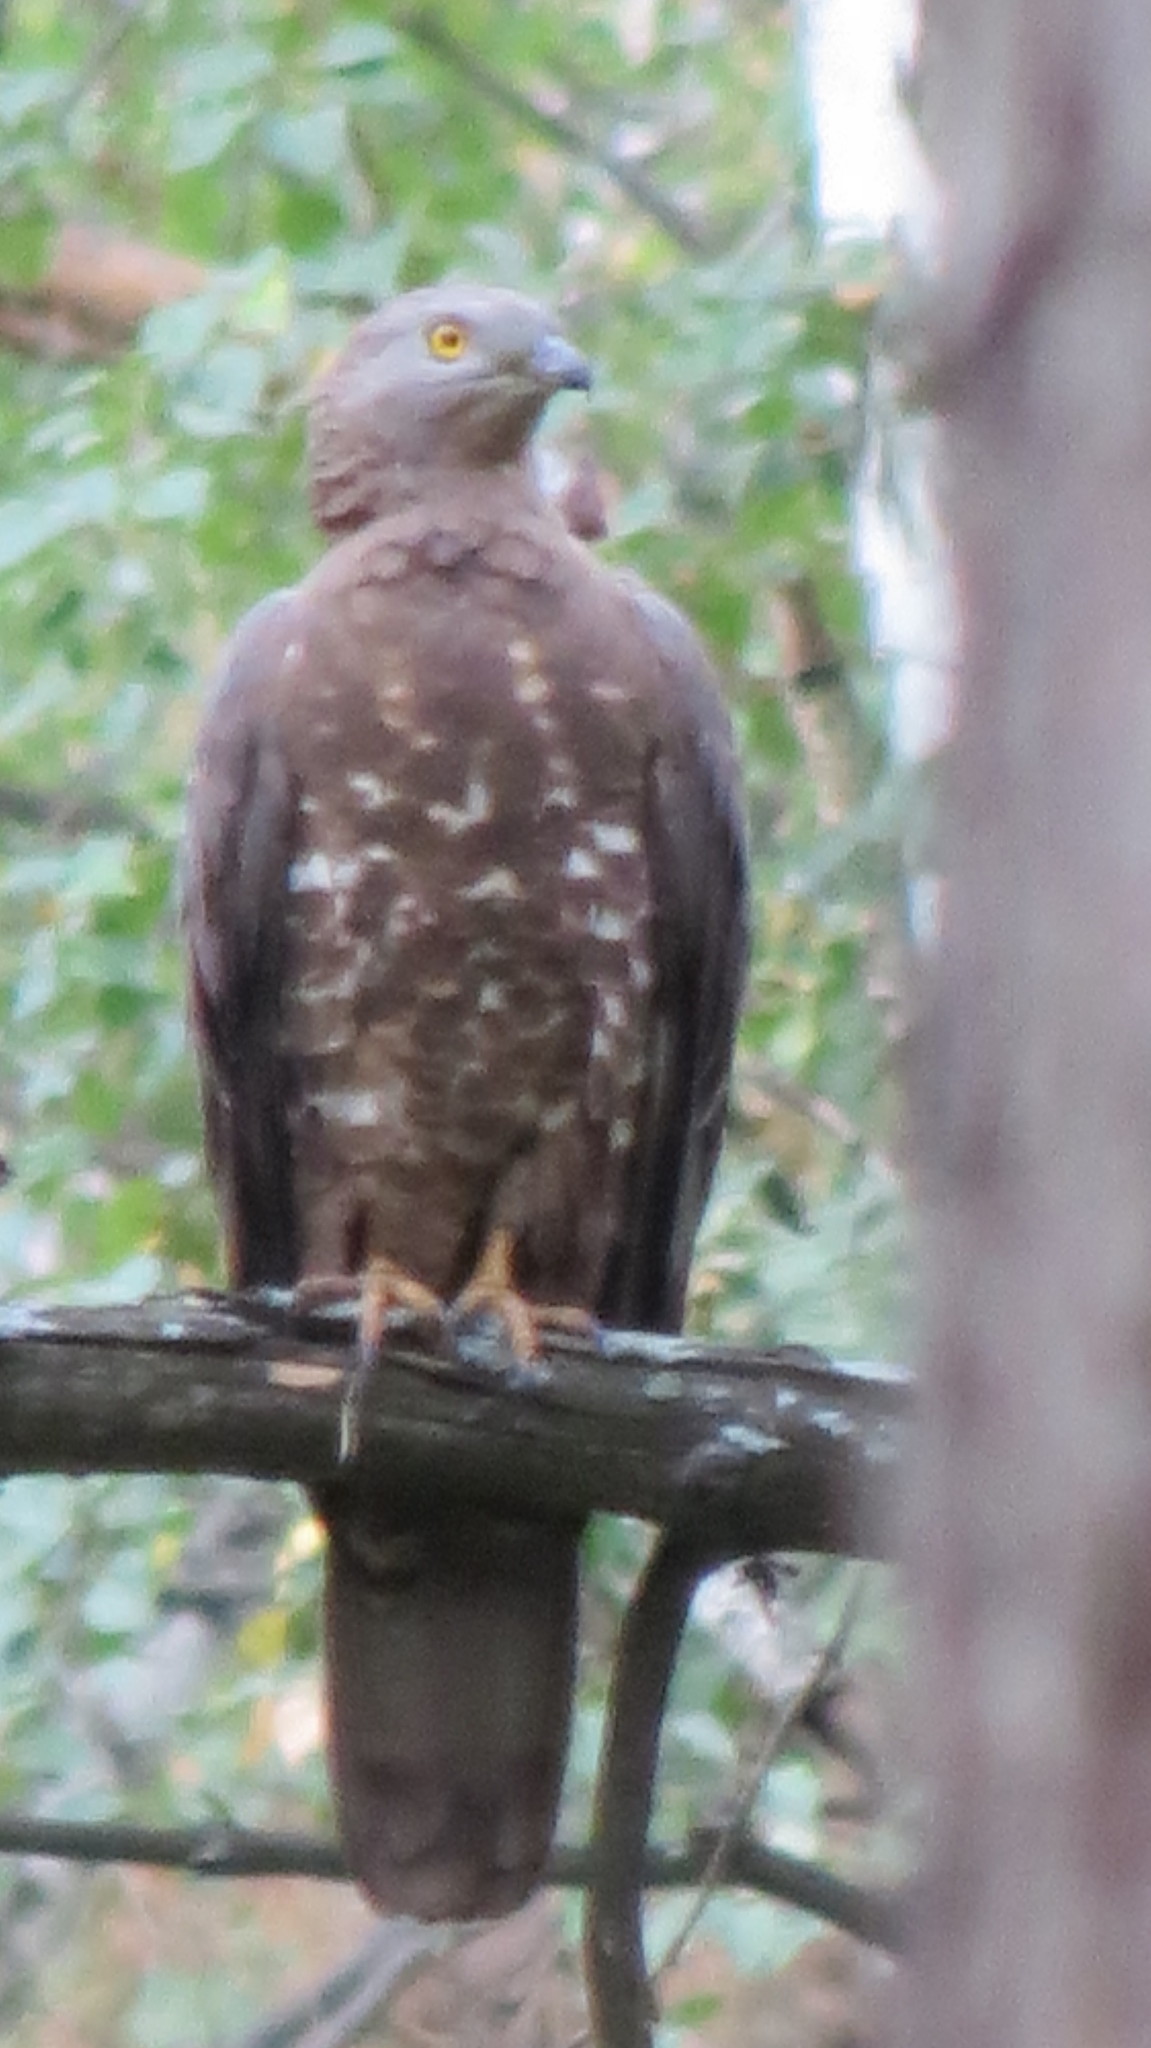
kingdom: Animalia
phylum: Chordata
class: Aves
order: Accipitriformes
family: Accipitridae
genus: Pernis
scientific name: Pernis apivorus
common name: European honey buzzard
